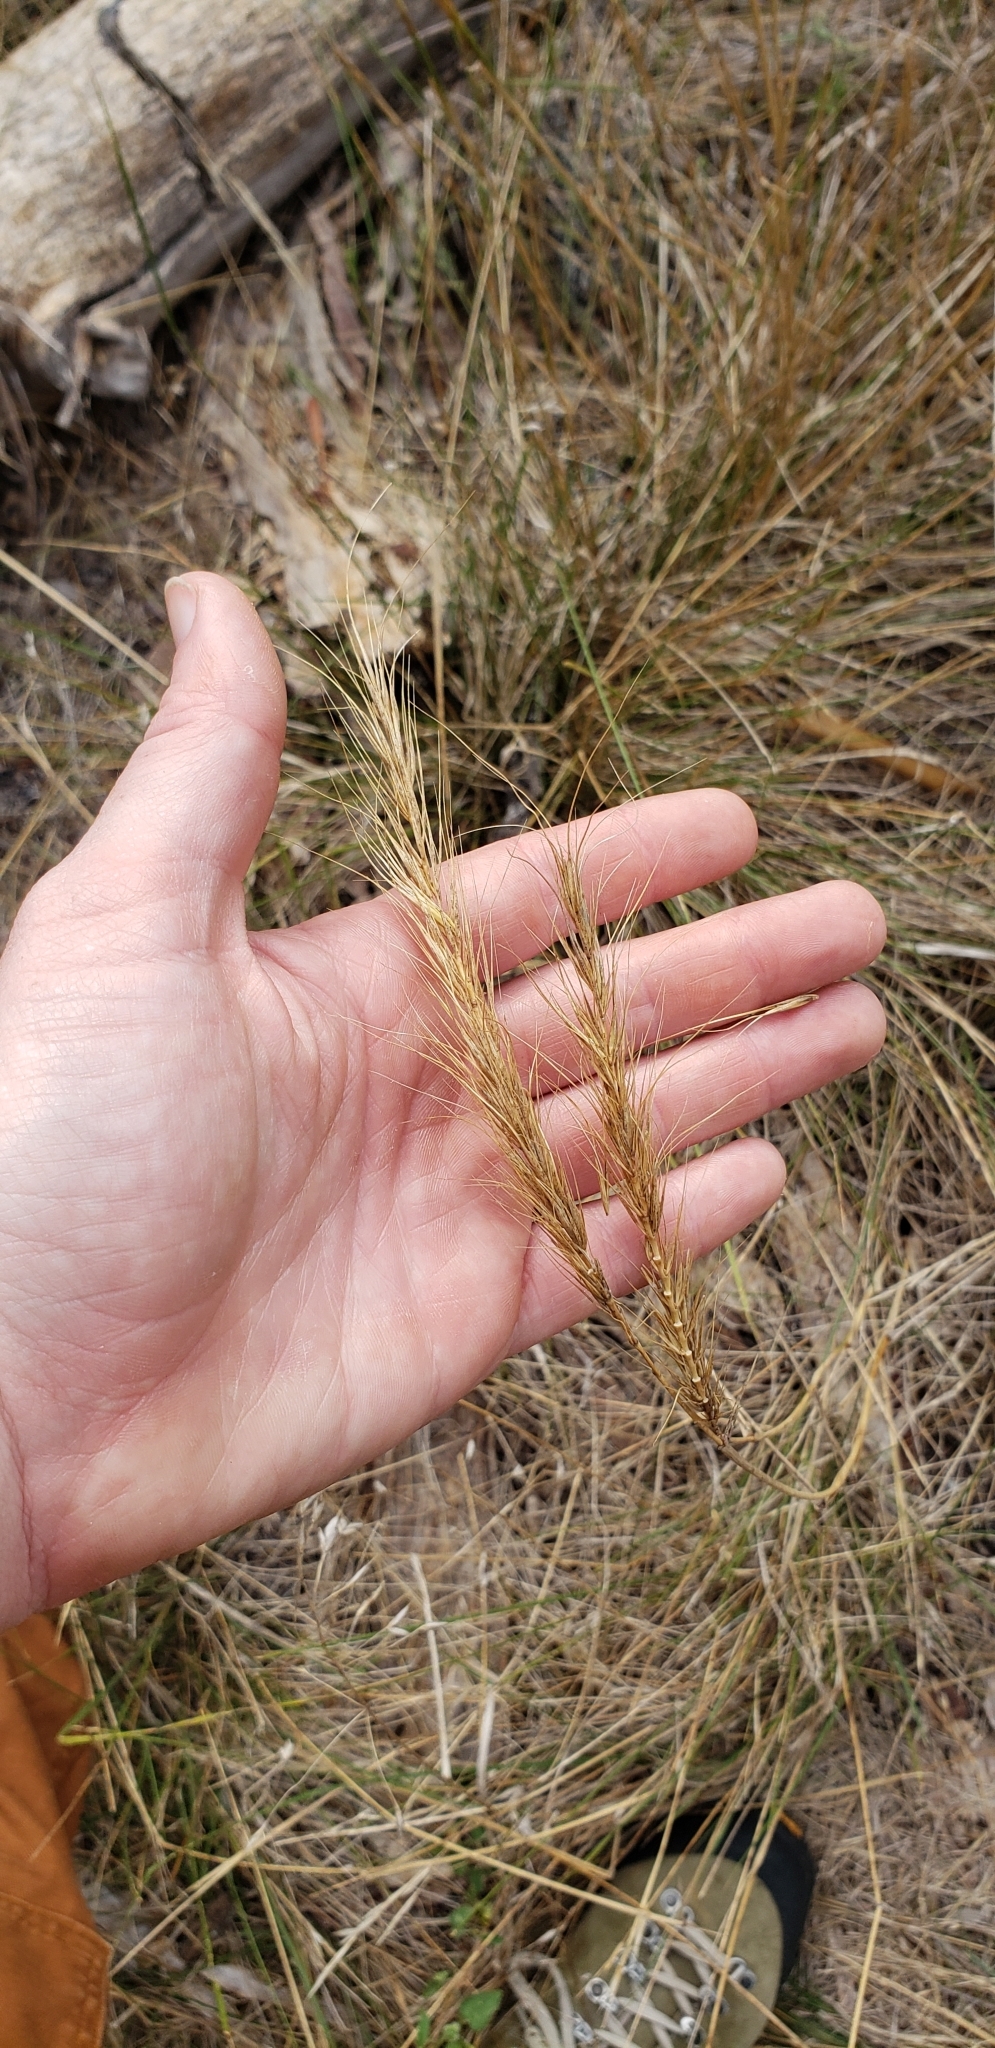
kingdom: Plantae
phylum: Tracheophyta
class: Liliopsida
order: Poales
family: Poaceae
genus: Elymus
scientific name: Elymus canadensis
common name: Canada wild rye
